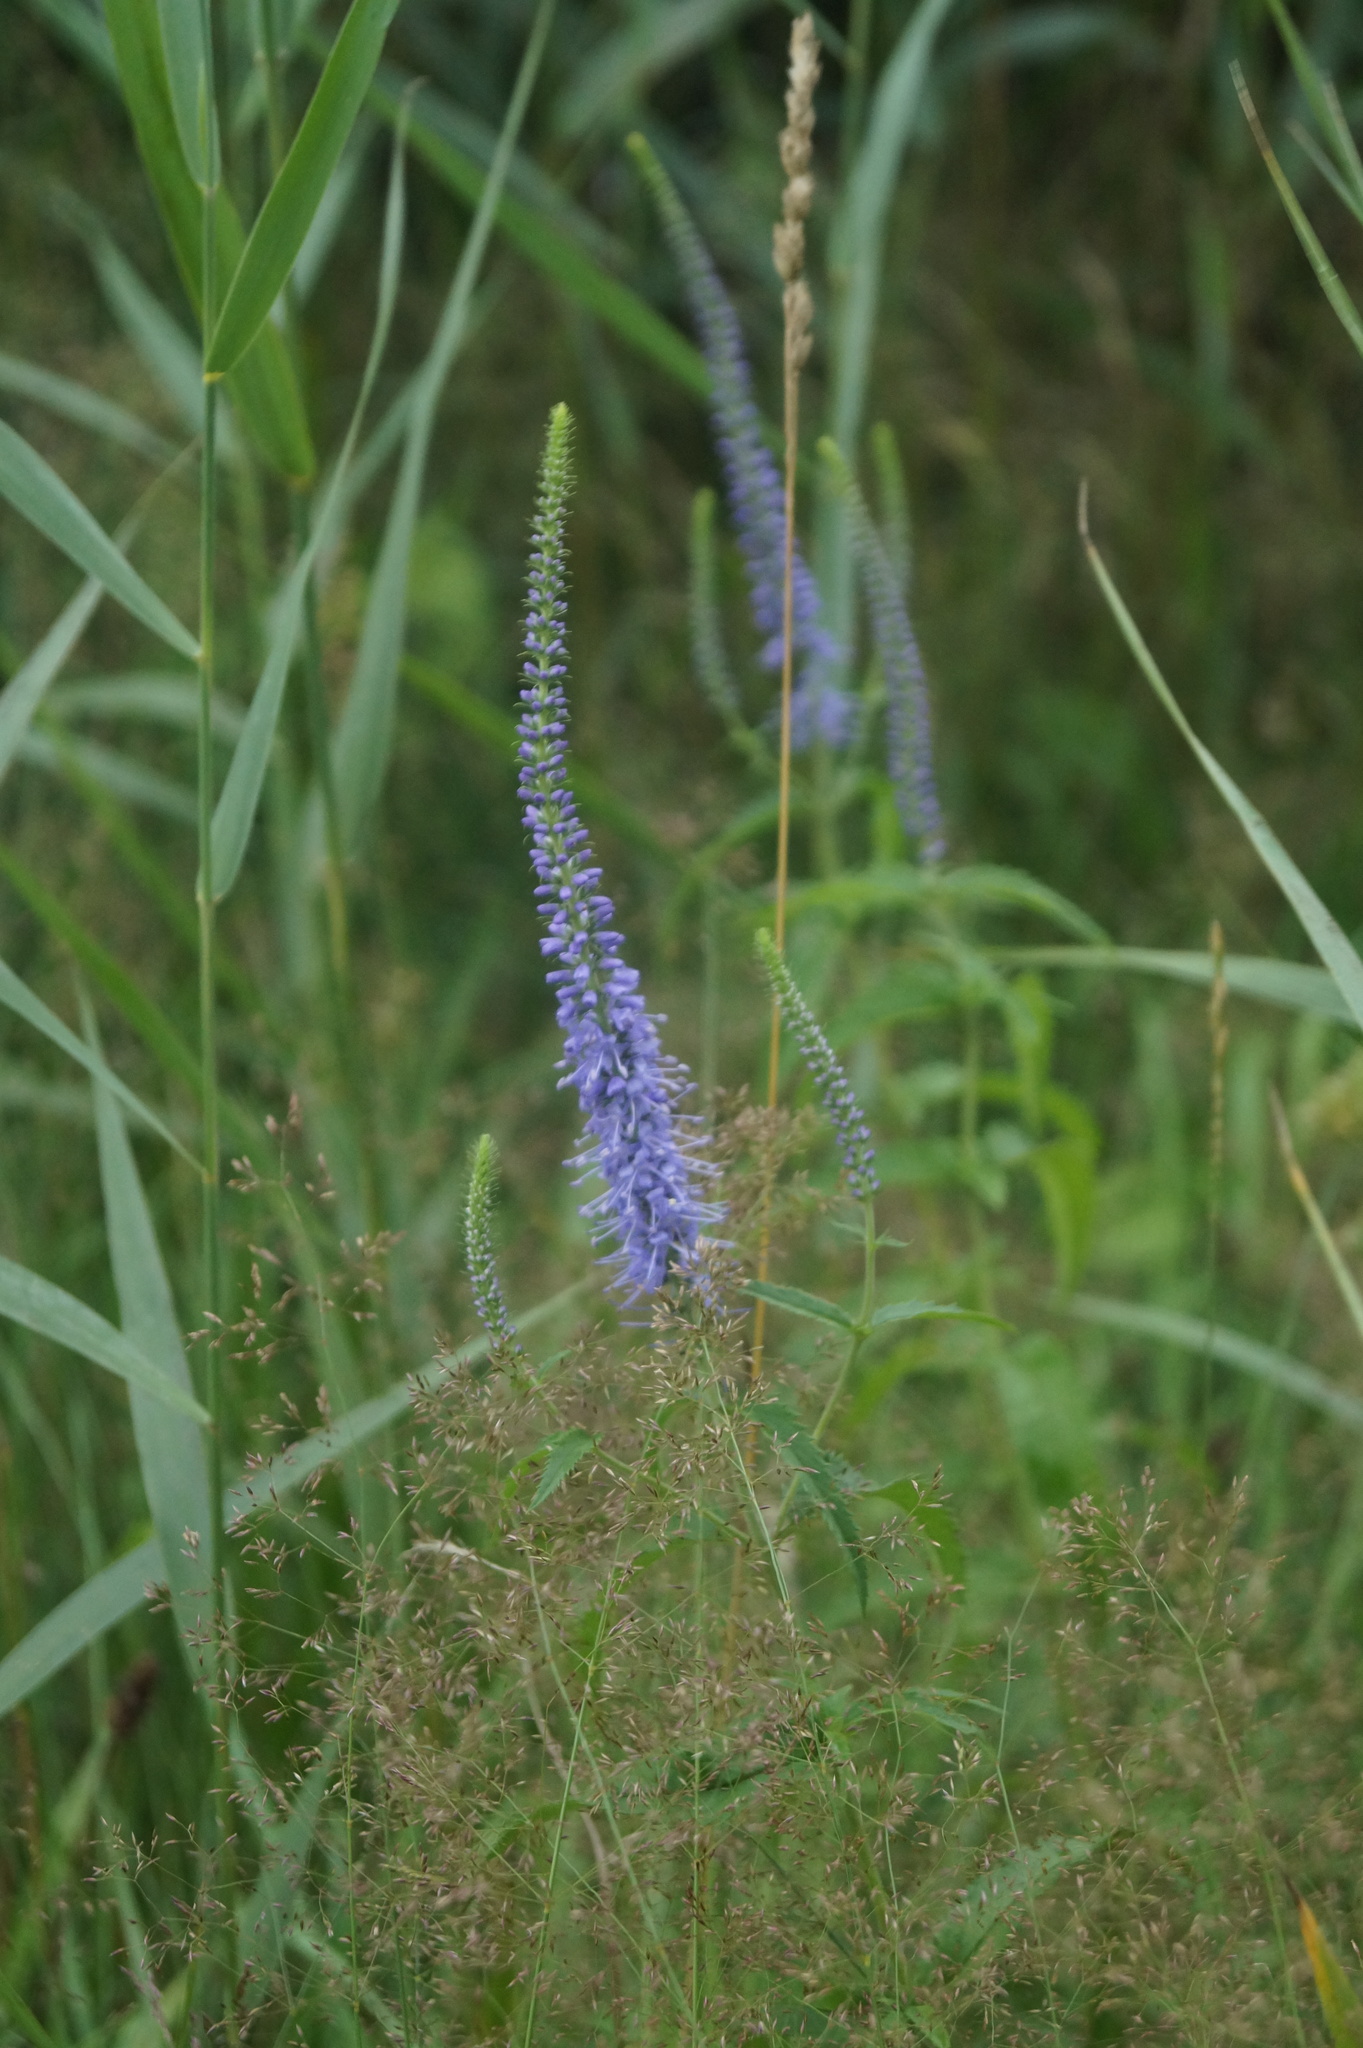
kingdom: Plantae
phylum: Tracheophyta
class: Magnoliopsida
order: Lamiales
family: Plantaginaceae
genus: Veronica
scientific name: Veronica longifolia
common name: Garden speedwell
